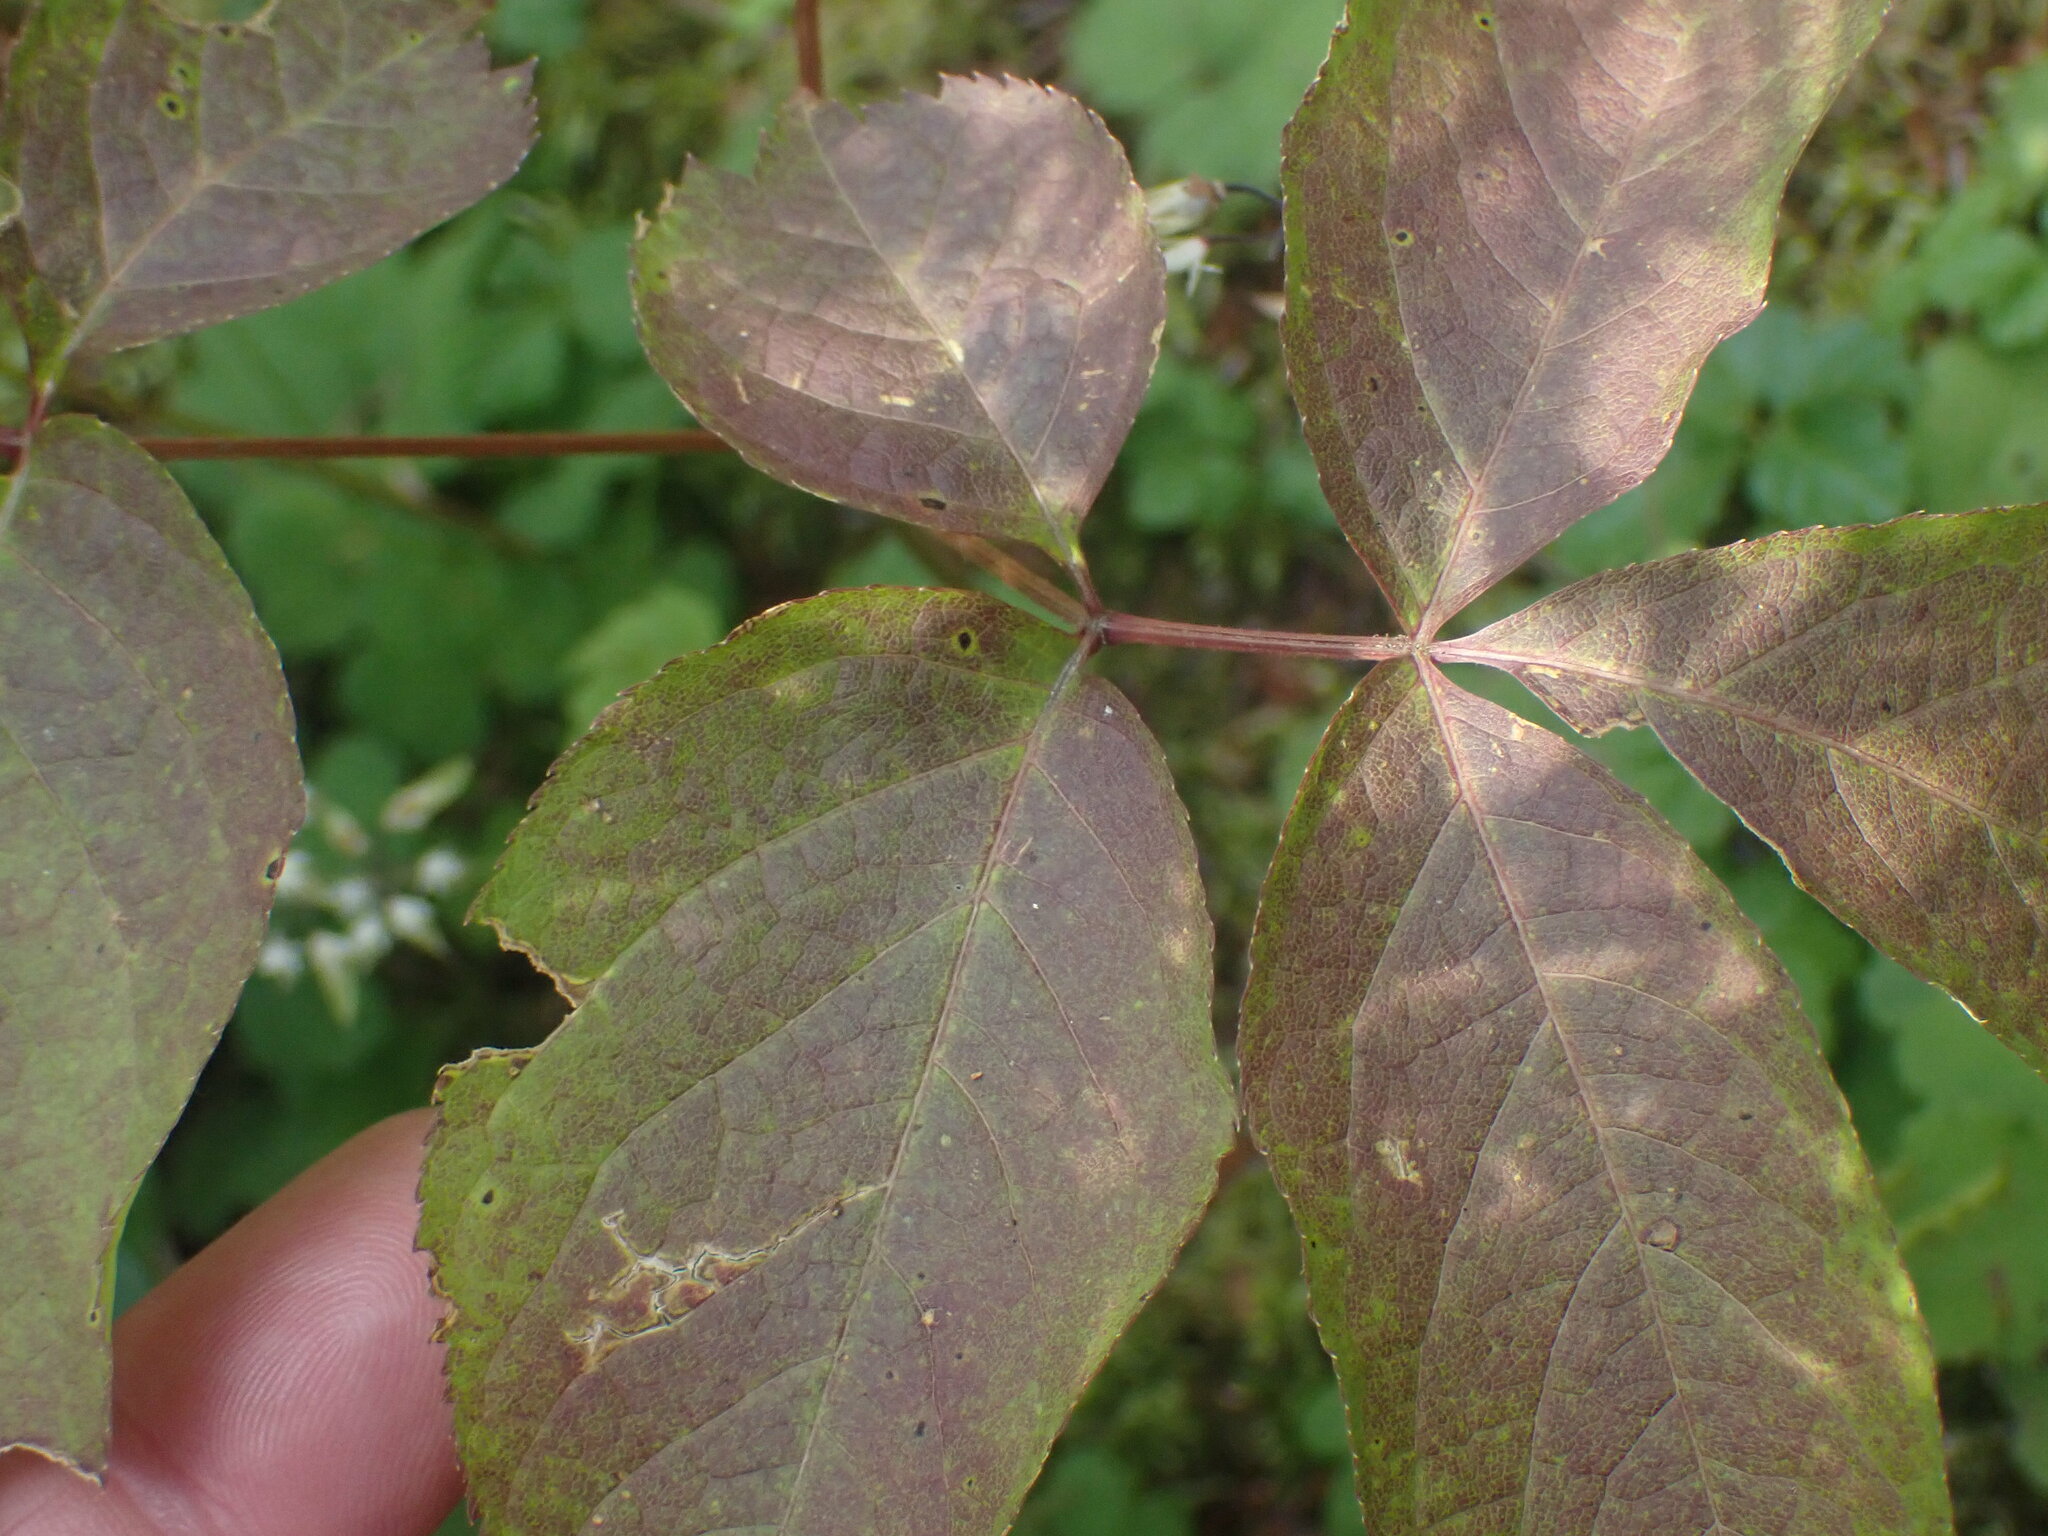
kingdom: Plantae
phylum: Tracheophyta
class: Magnoliopsida
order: Apiales
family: Araliaceae
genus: Aralia
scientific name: Aralia nudicaulis
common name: Wild sarsaparilla
